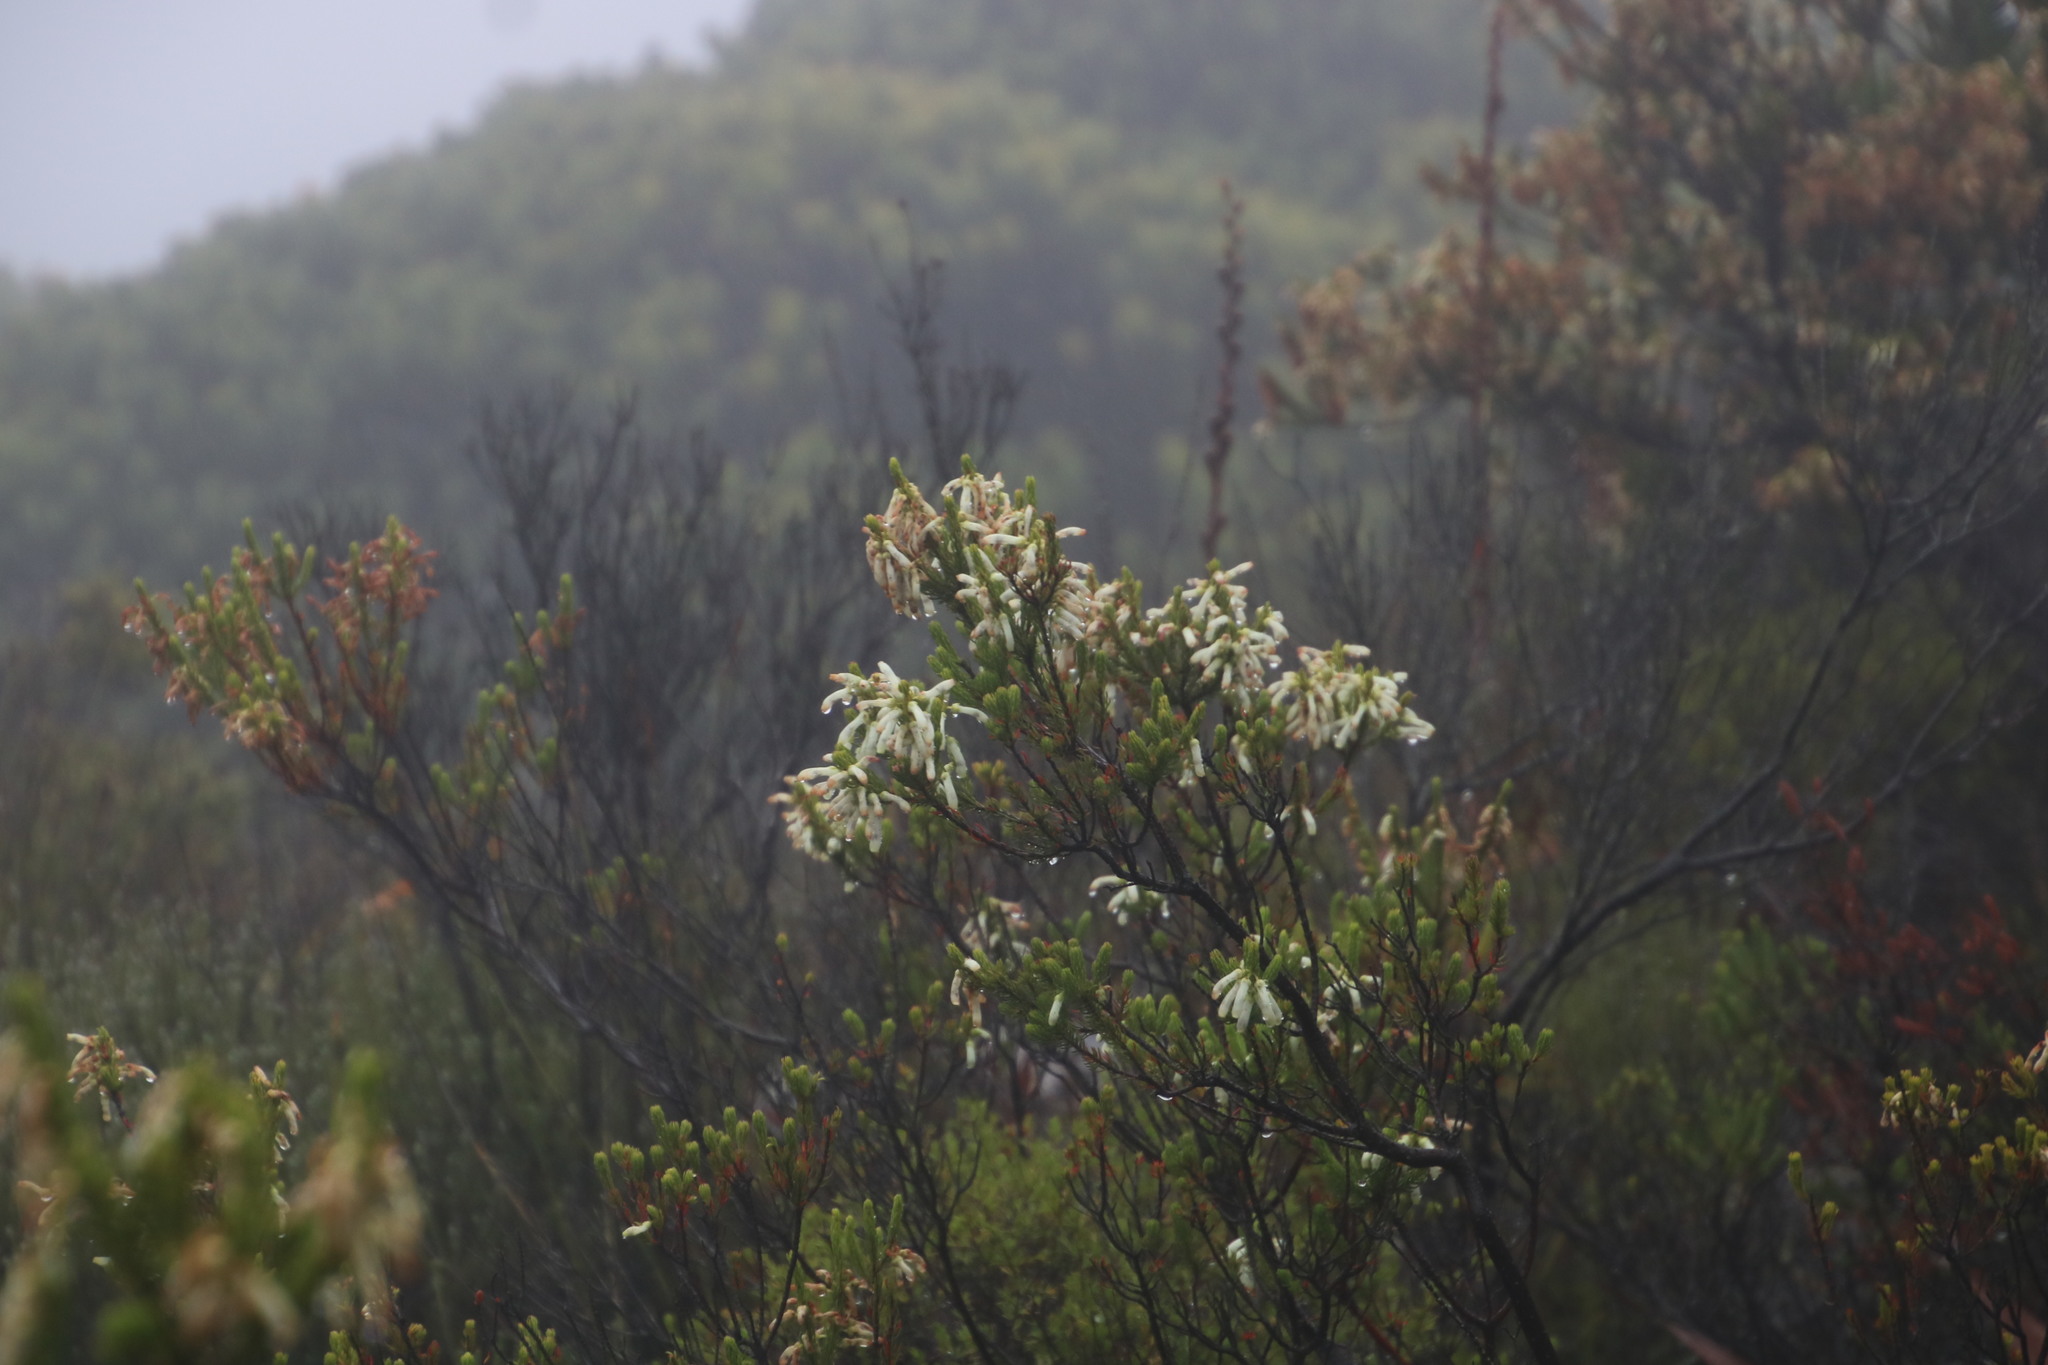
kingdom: Plantae
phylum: Tracheophyta
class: Magnoliopsida
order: Ericales
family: Ericaceae
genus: Erica
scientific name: Erica mammosa
